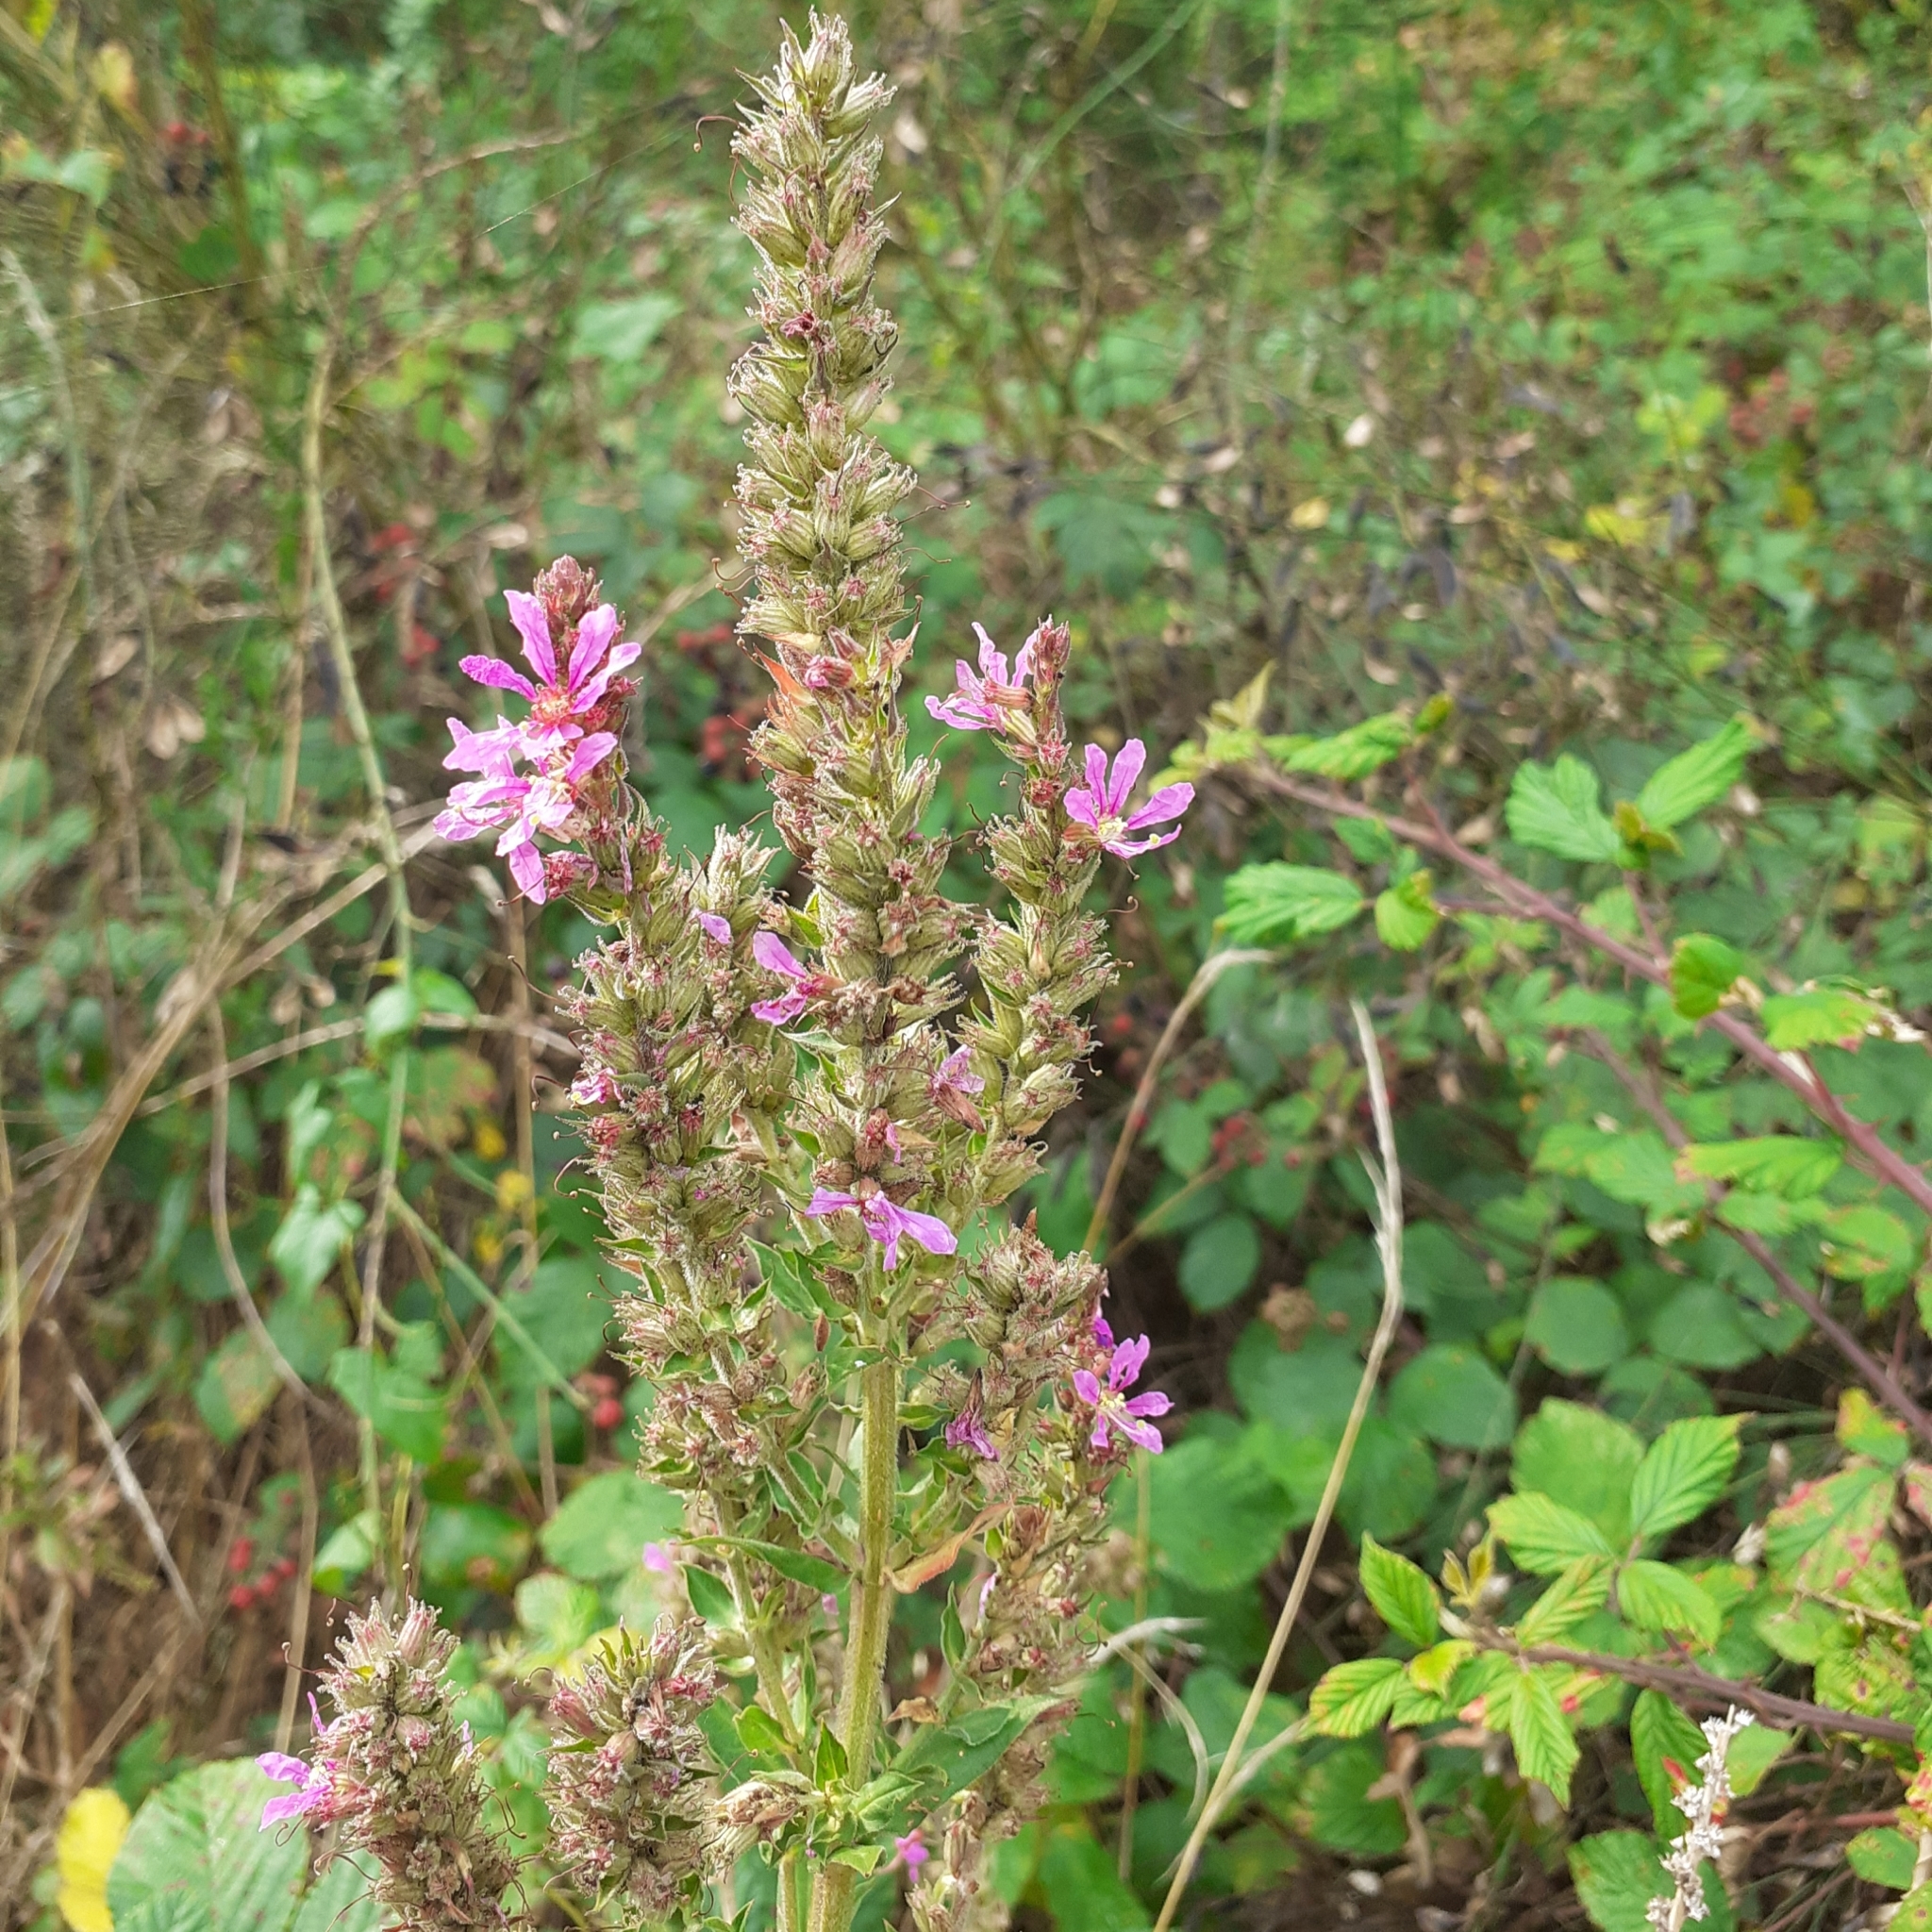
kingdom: Plantae
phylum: Tracheophyta
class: Magnoliopsida
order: Myrtales
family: Lythraceae
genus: Lythrum
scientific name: Lythrum salicaria
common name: Purple loosestrife
